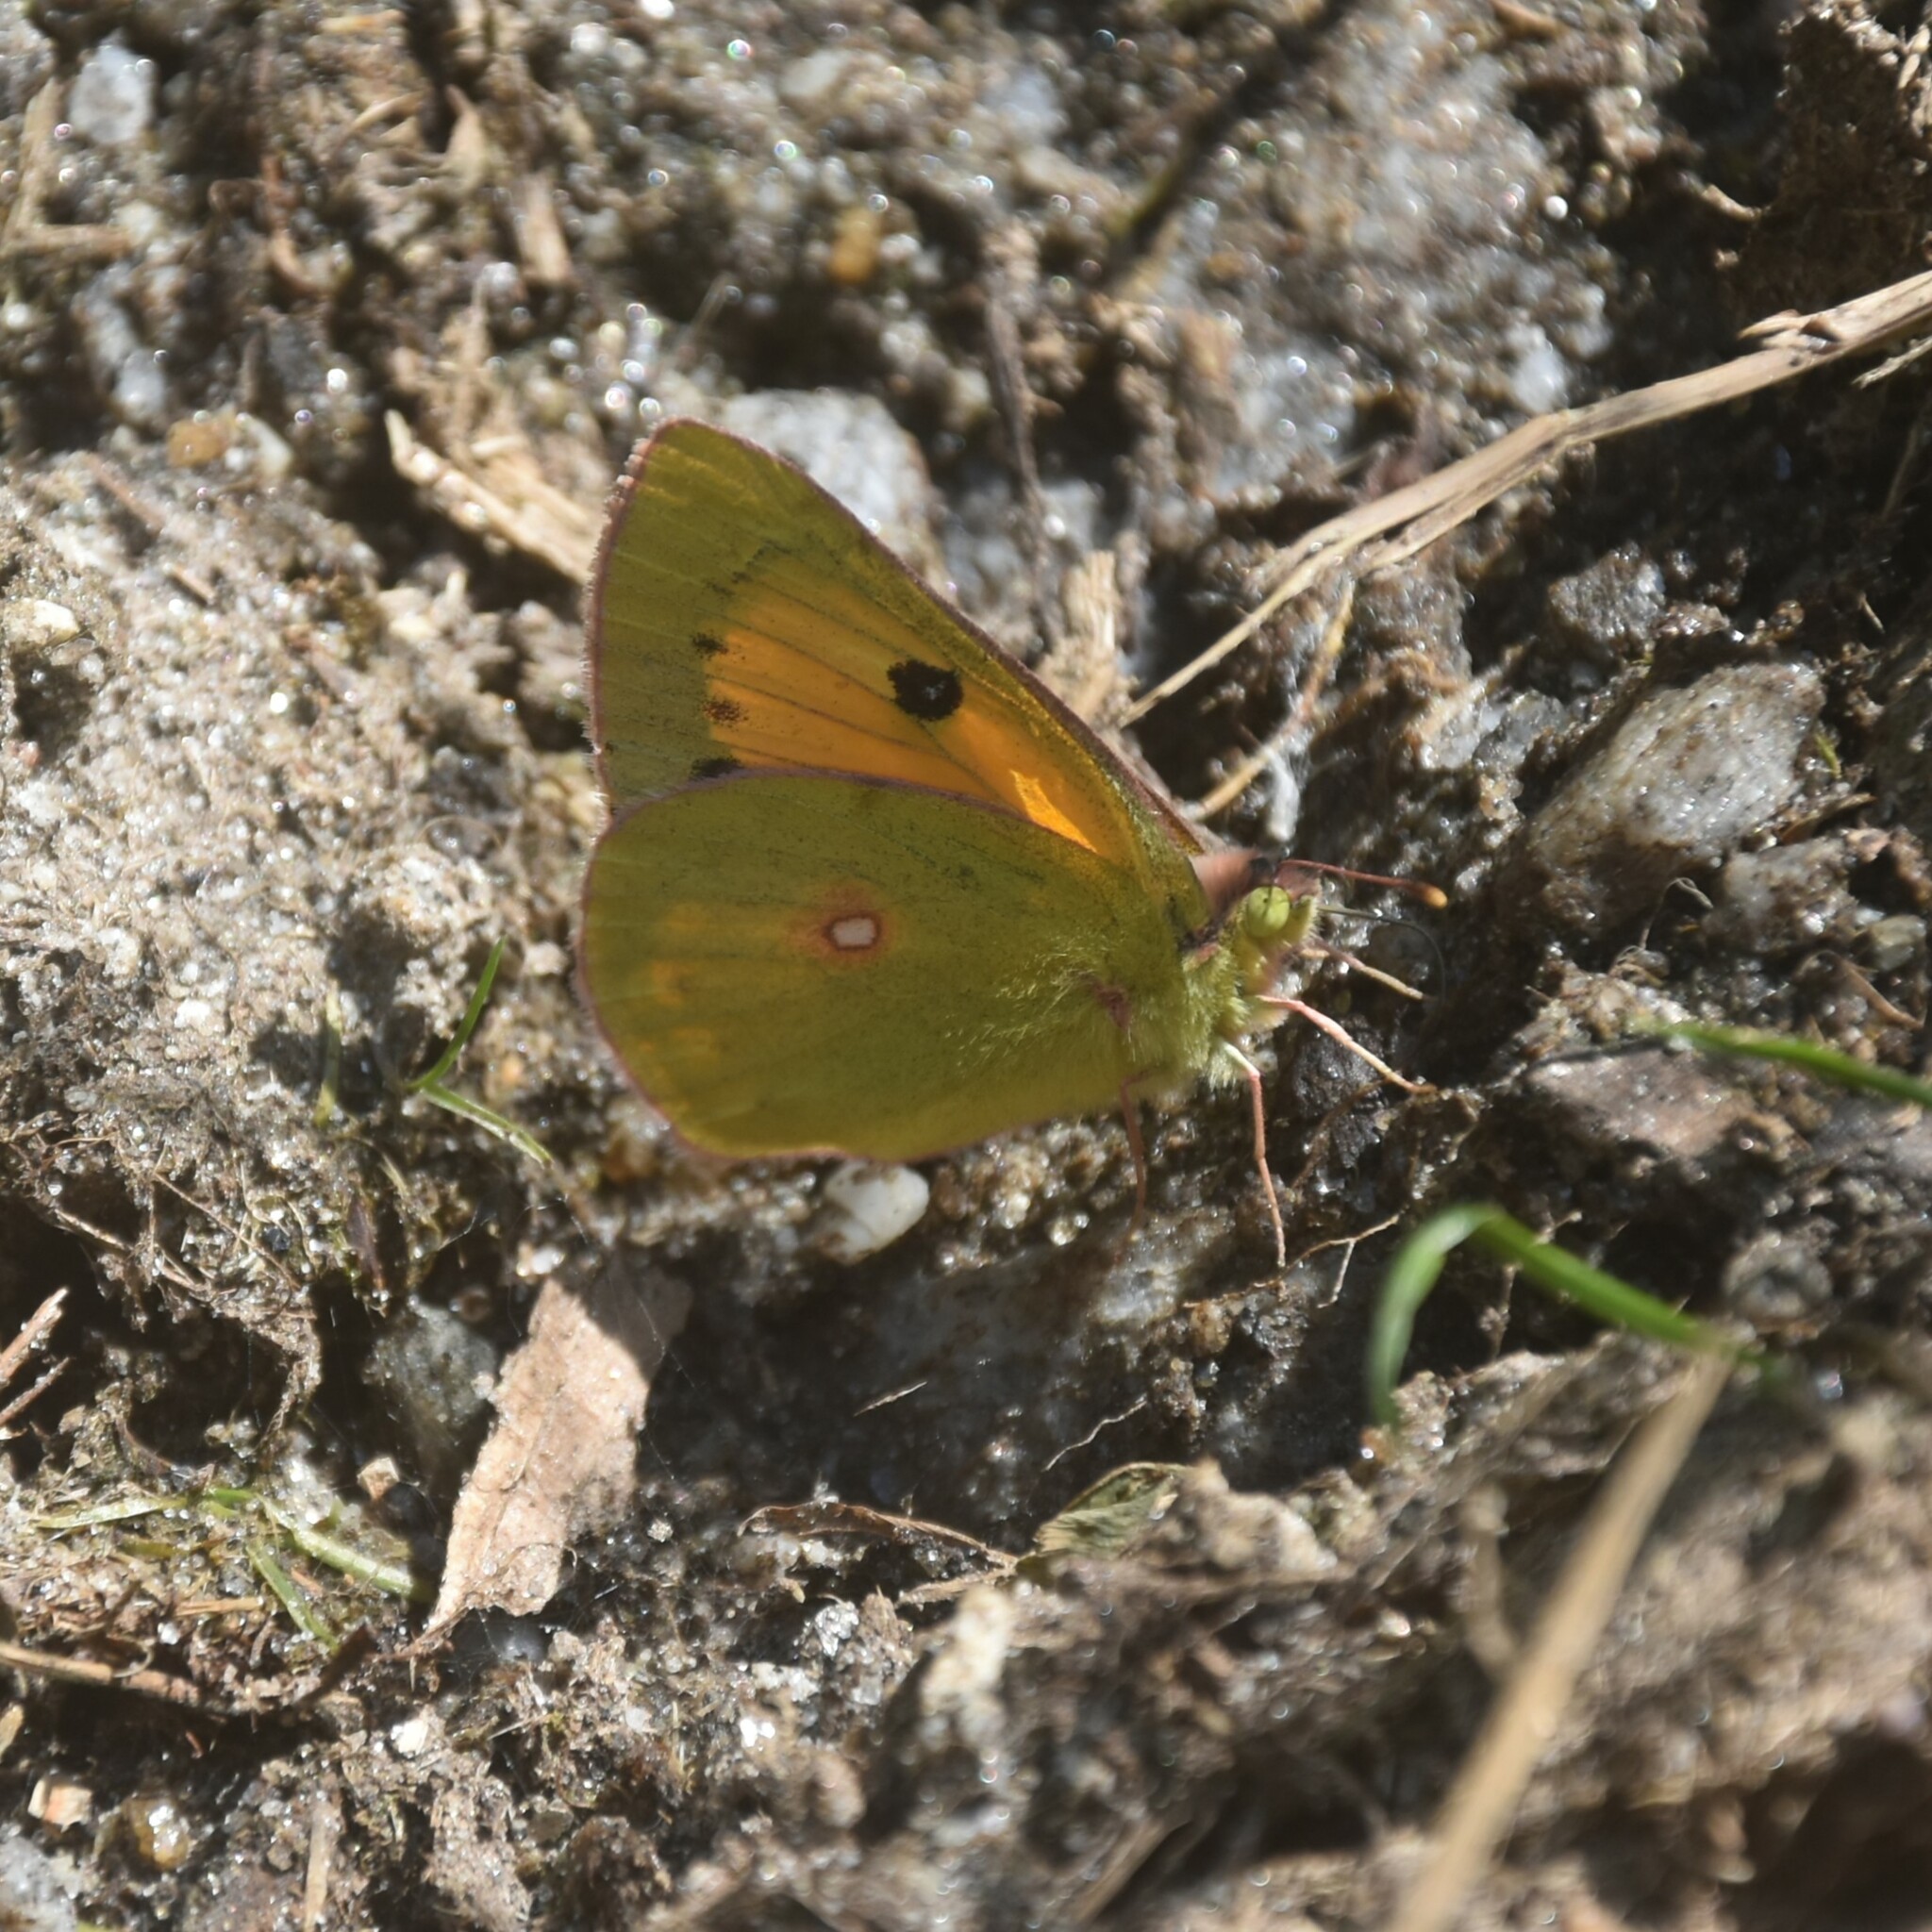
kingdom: Animalia
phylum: Arthropoda
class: Insecta
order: Lepidoptera
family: Pieridae
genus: Colias
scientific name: Colias fieldii
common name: Dark clouded yellow
